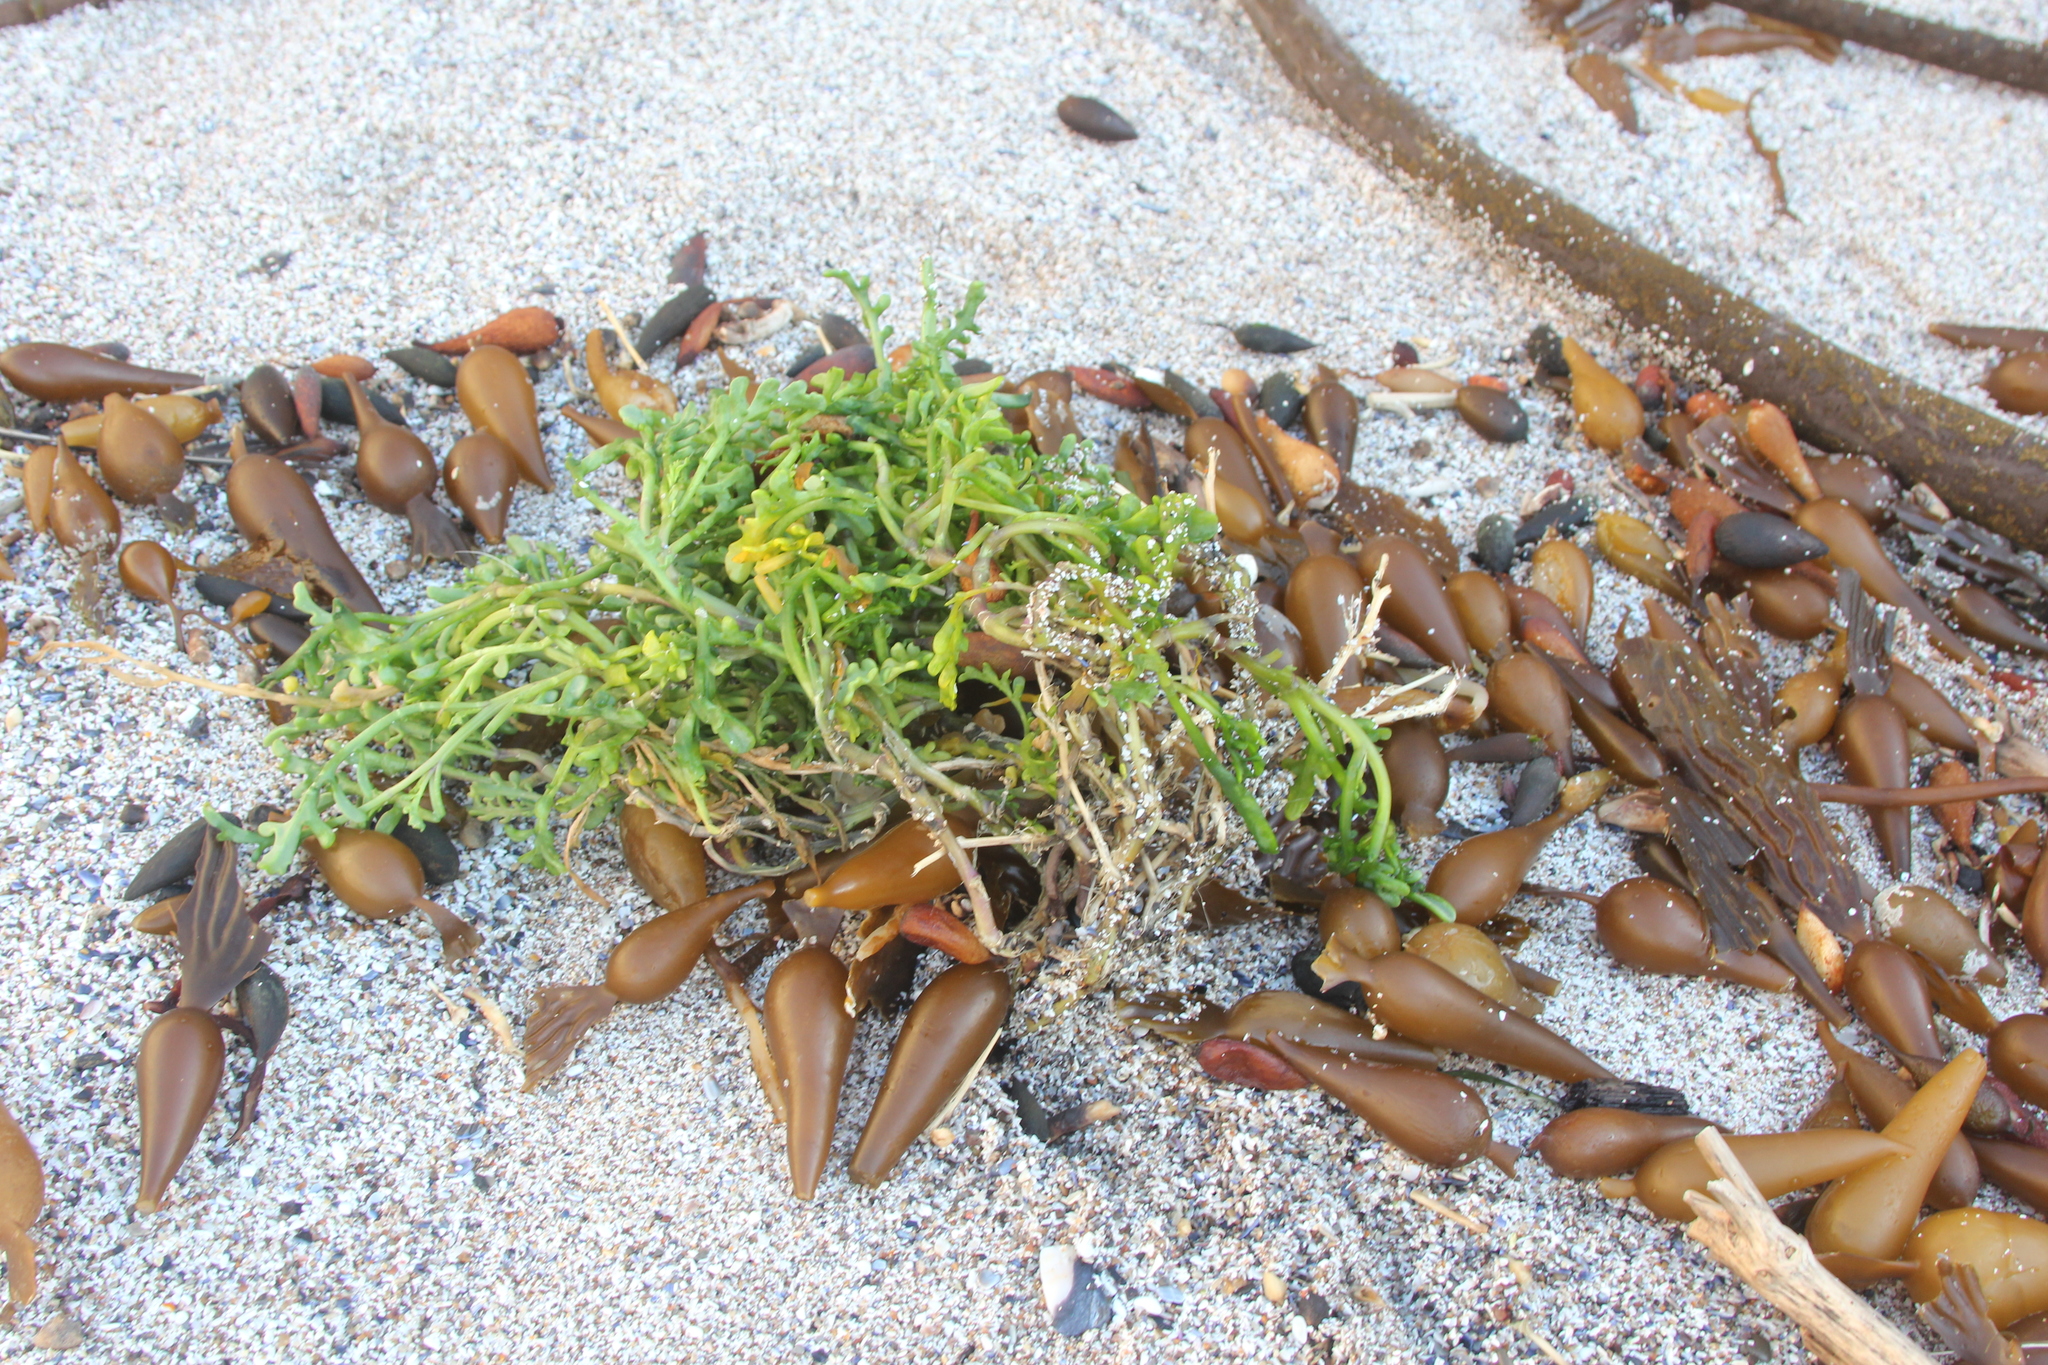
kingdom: Plantae
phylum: Tracheophyta
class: Magnoliopsida
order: Brassicales
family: Brassicaceae
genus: Cakile
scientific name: Cakile maritima
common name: Sea rocket
